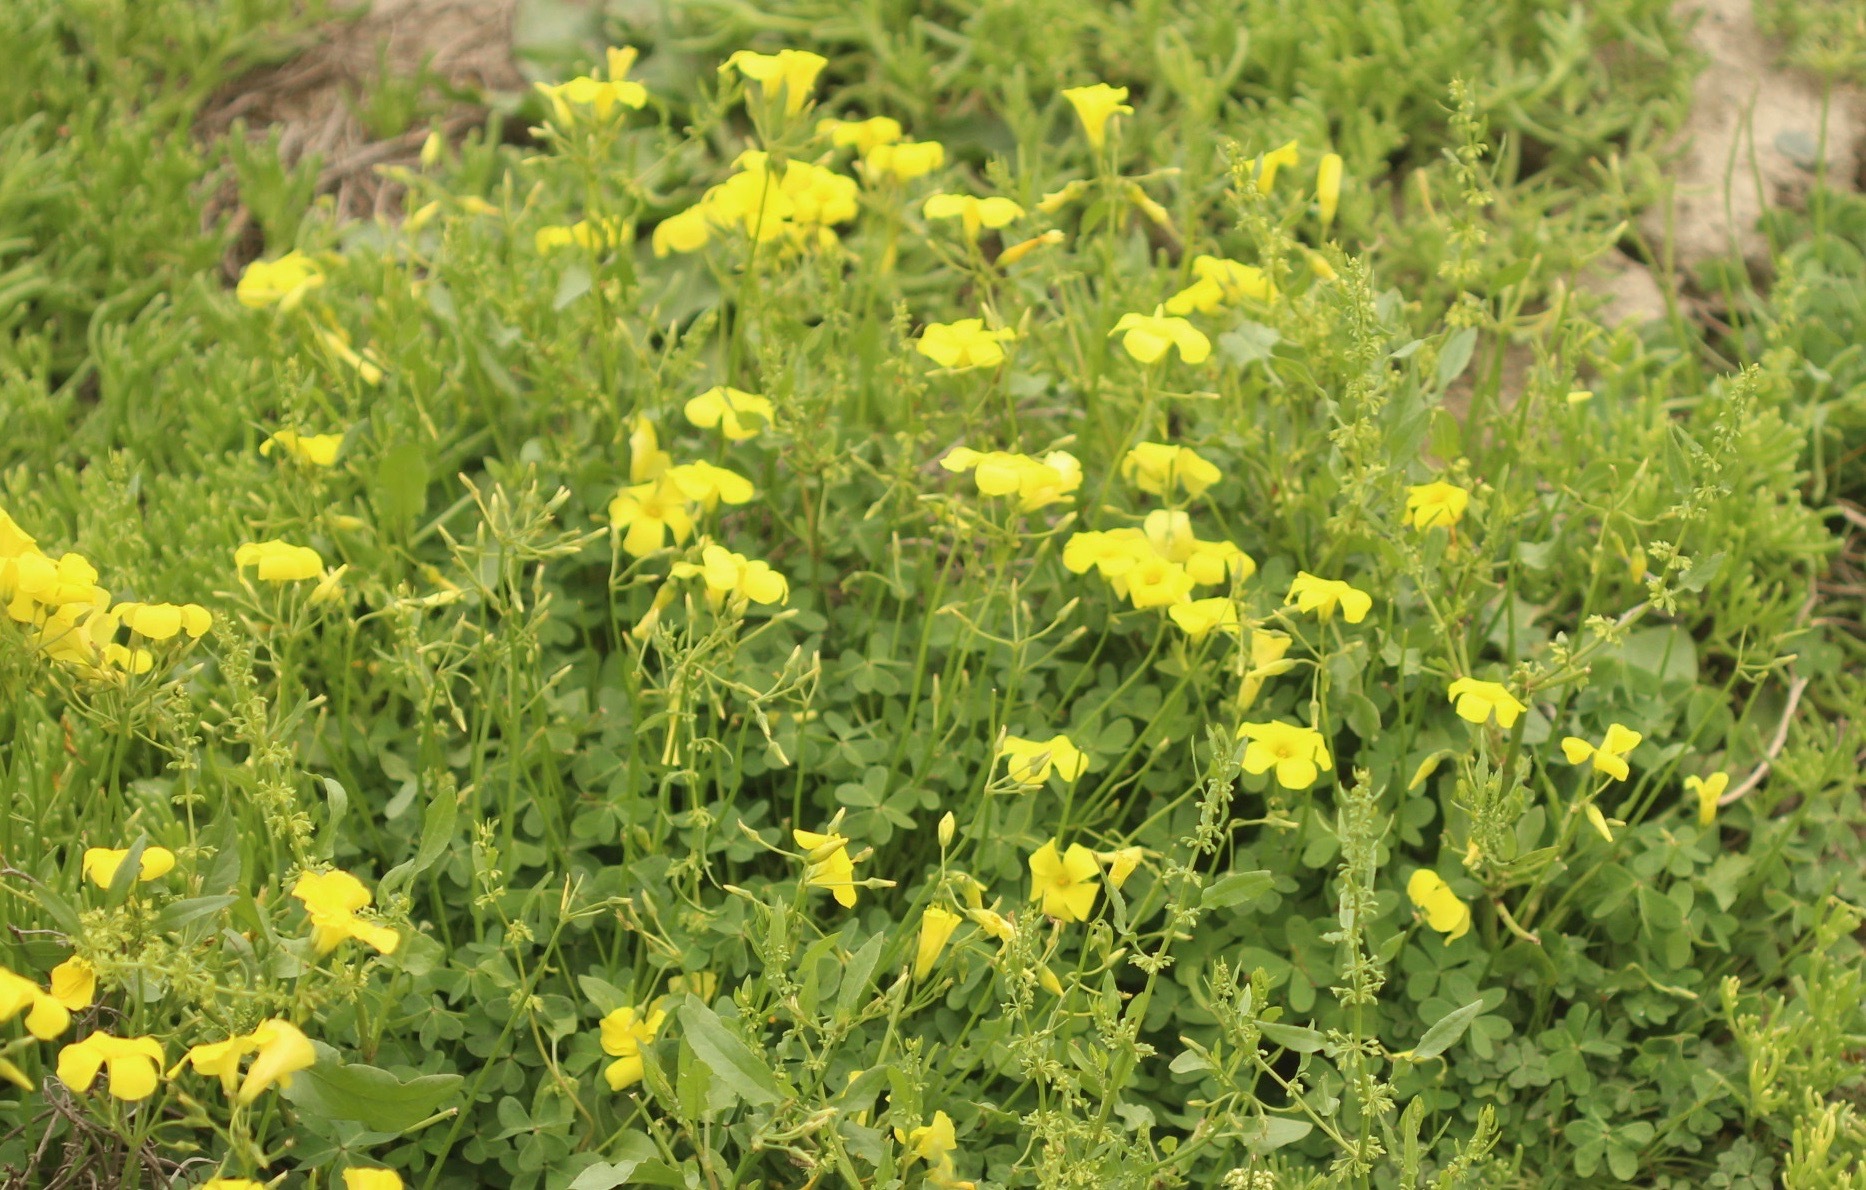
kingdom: Plantae
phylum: Tracheophyta
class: Magnoliopsida
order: Oxalidales
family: Oxalidaceae
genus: Oxalis
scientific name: Oxalis pes-caprae
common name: Bermuda-buttercup
